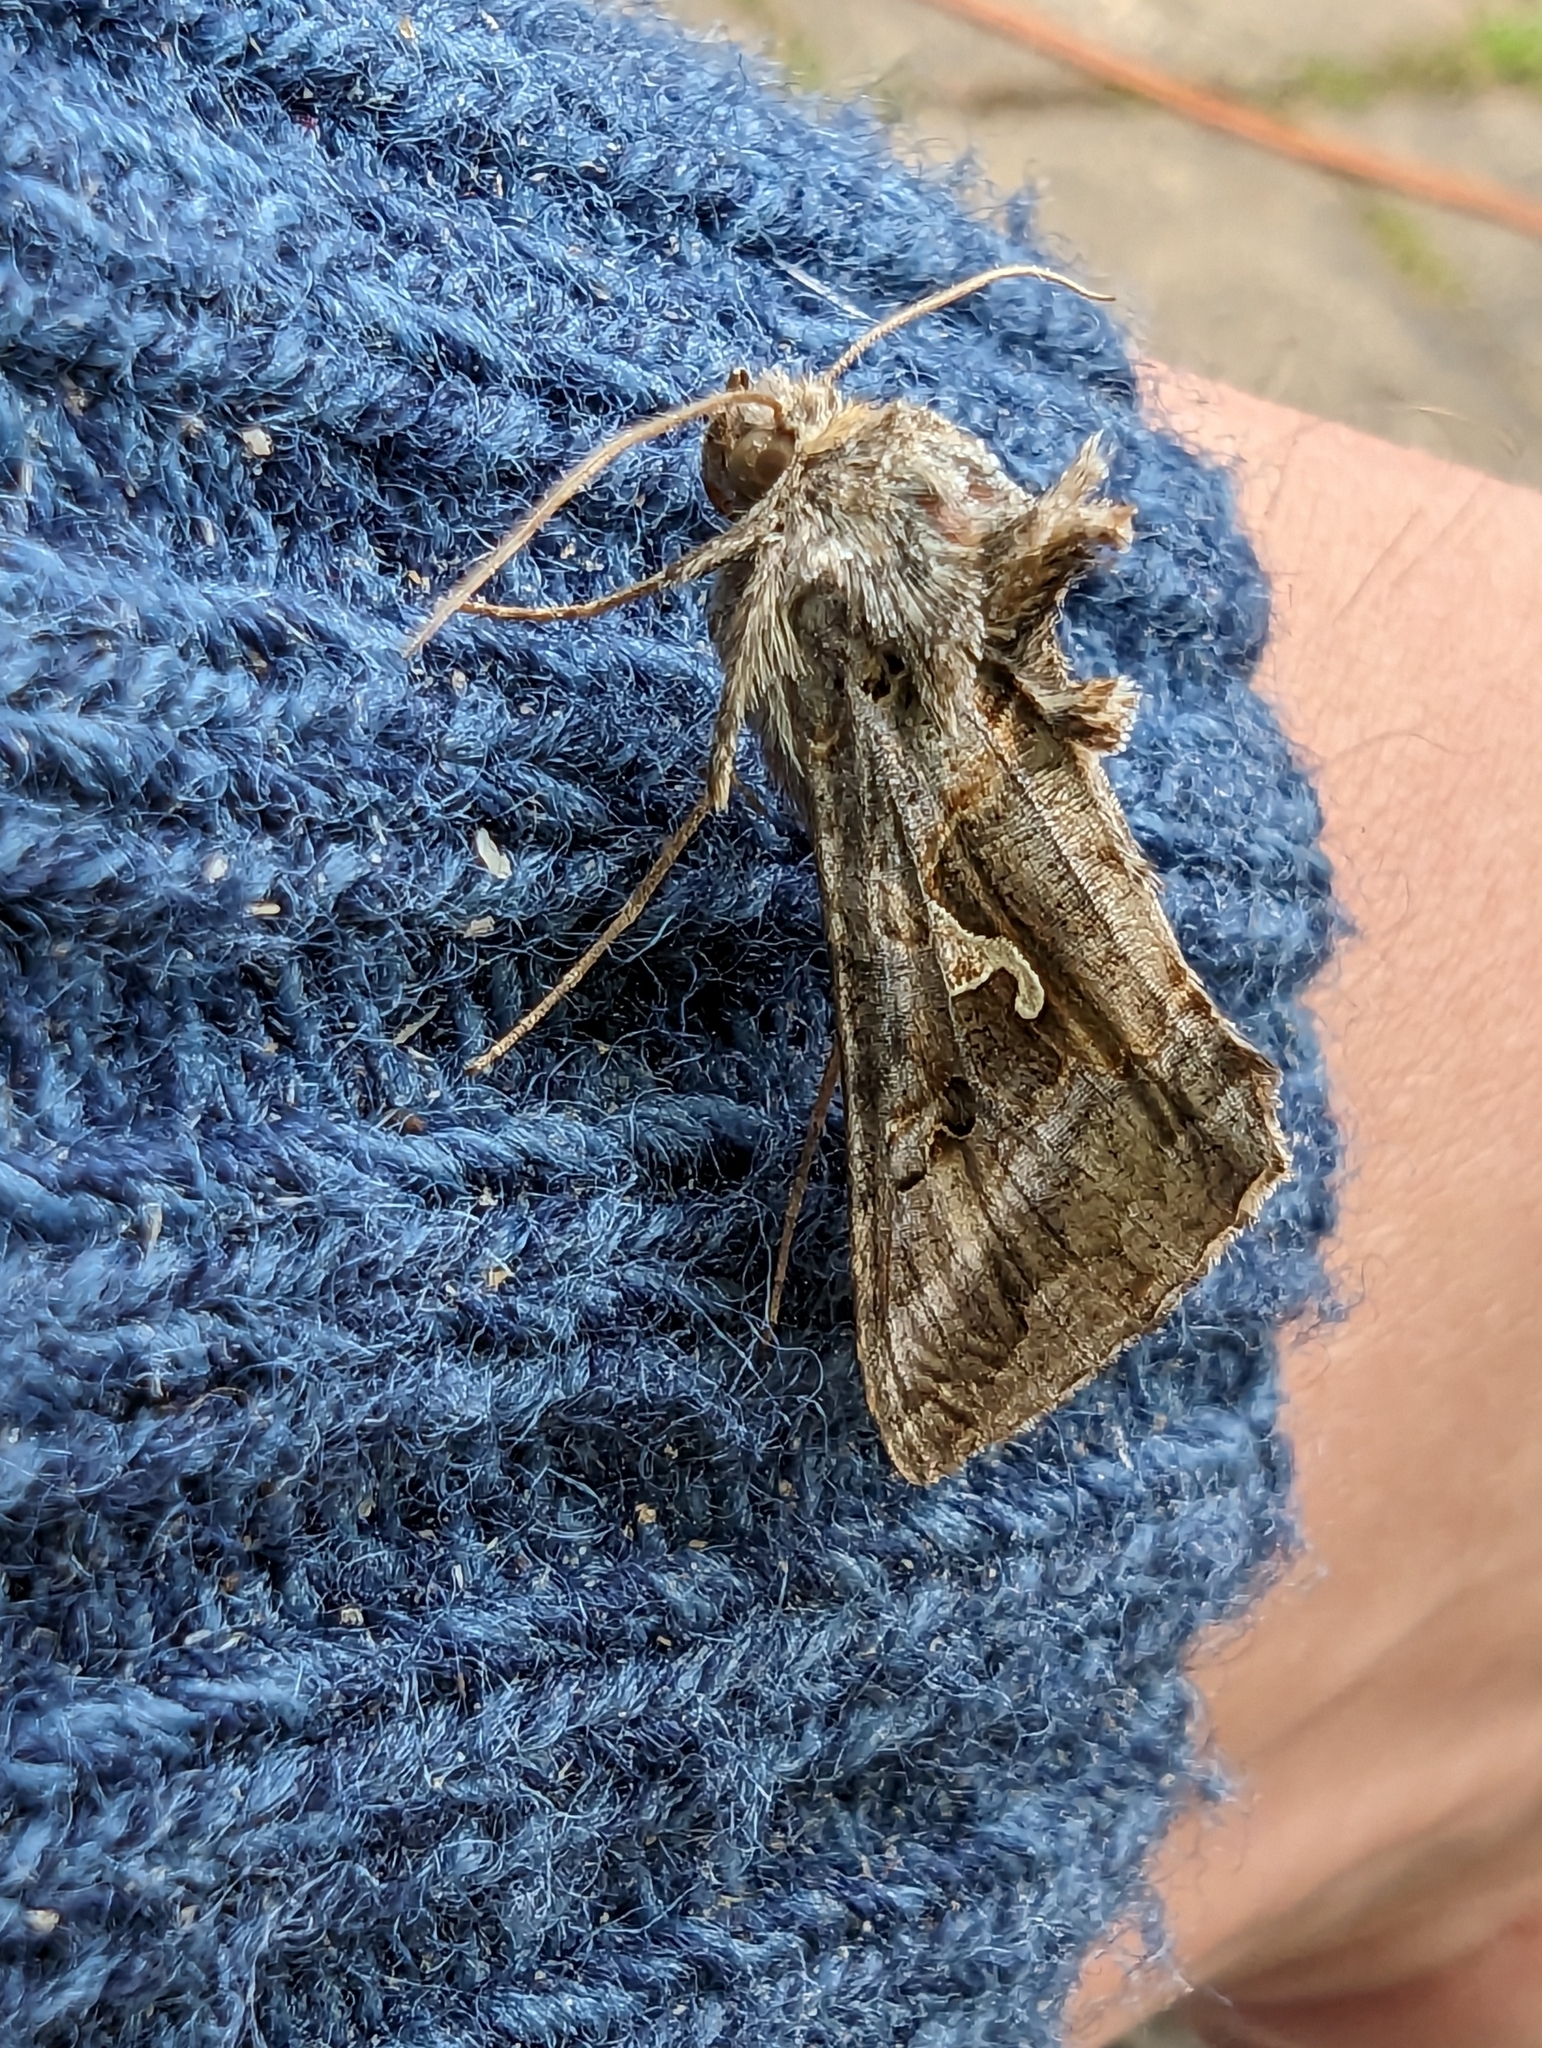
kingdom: Animalia
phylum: Arthropoda
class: Insecta
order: Lepidoptera
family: Noctuidae
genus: Autographa
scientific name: Autographa gamma
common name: Silver y
